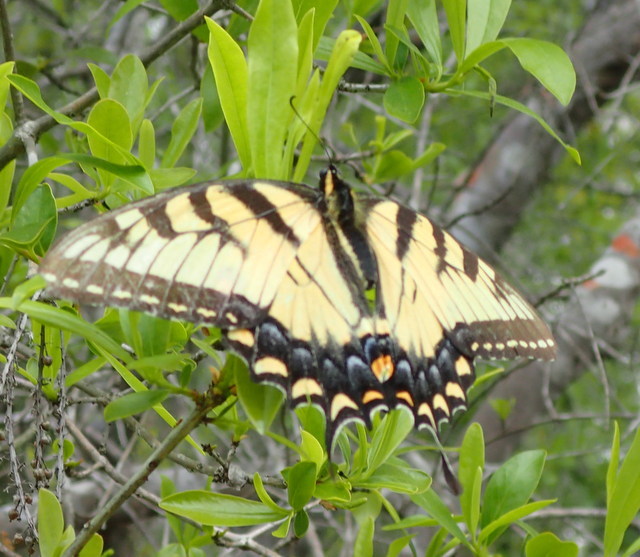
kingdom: Animalia
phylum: Arthropoda
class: Insecta
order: Lepidoptera
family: Papilionidae
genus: Papilio
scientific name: Papilio glaucus
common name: Tiger swallowtail
